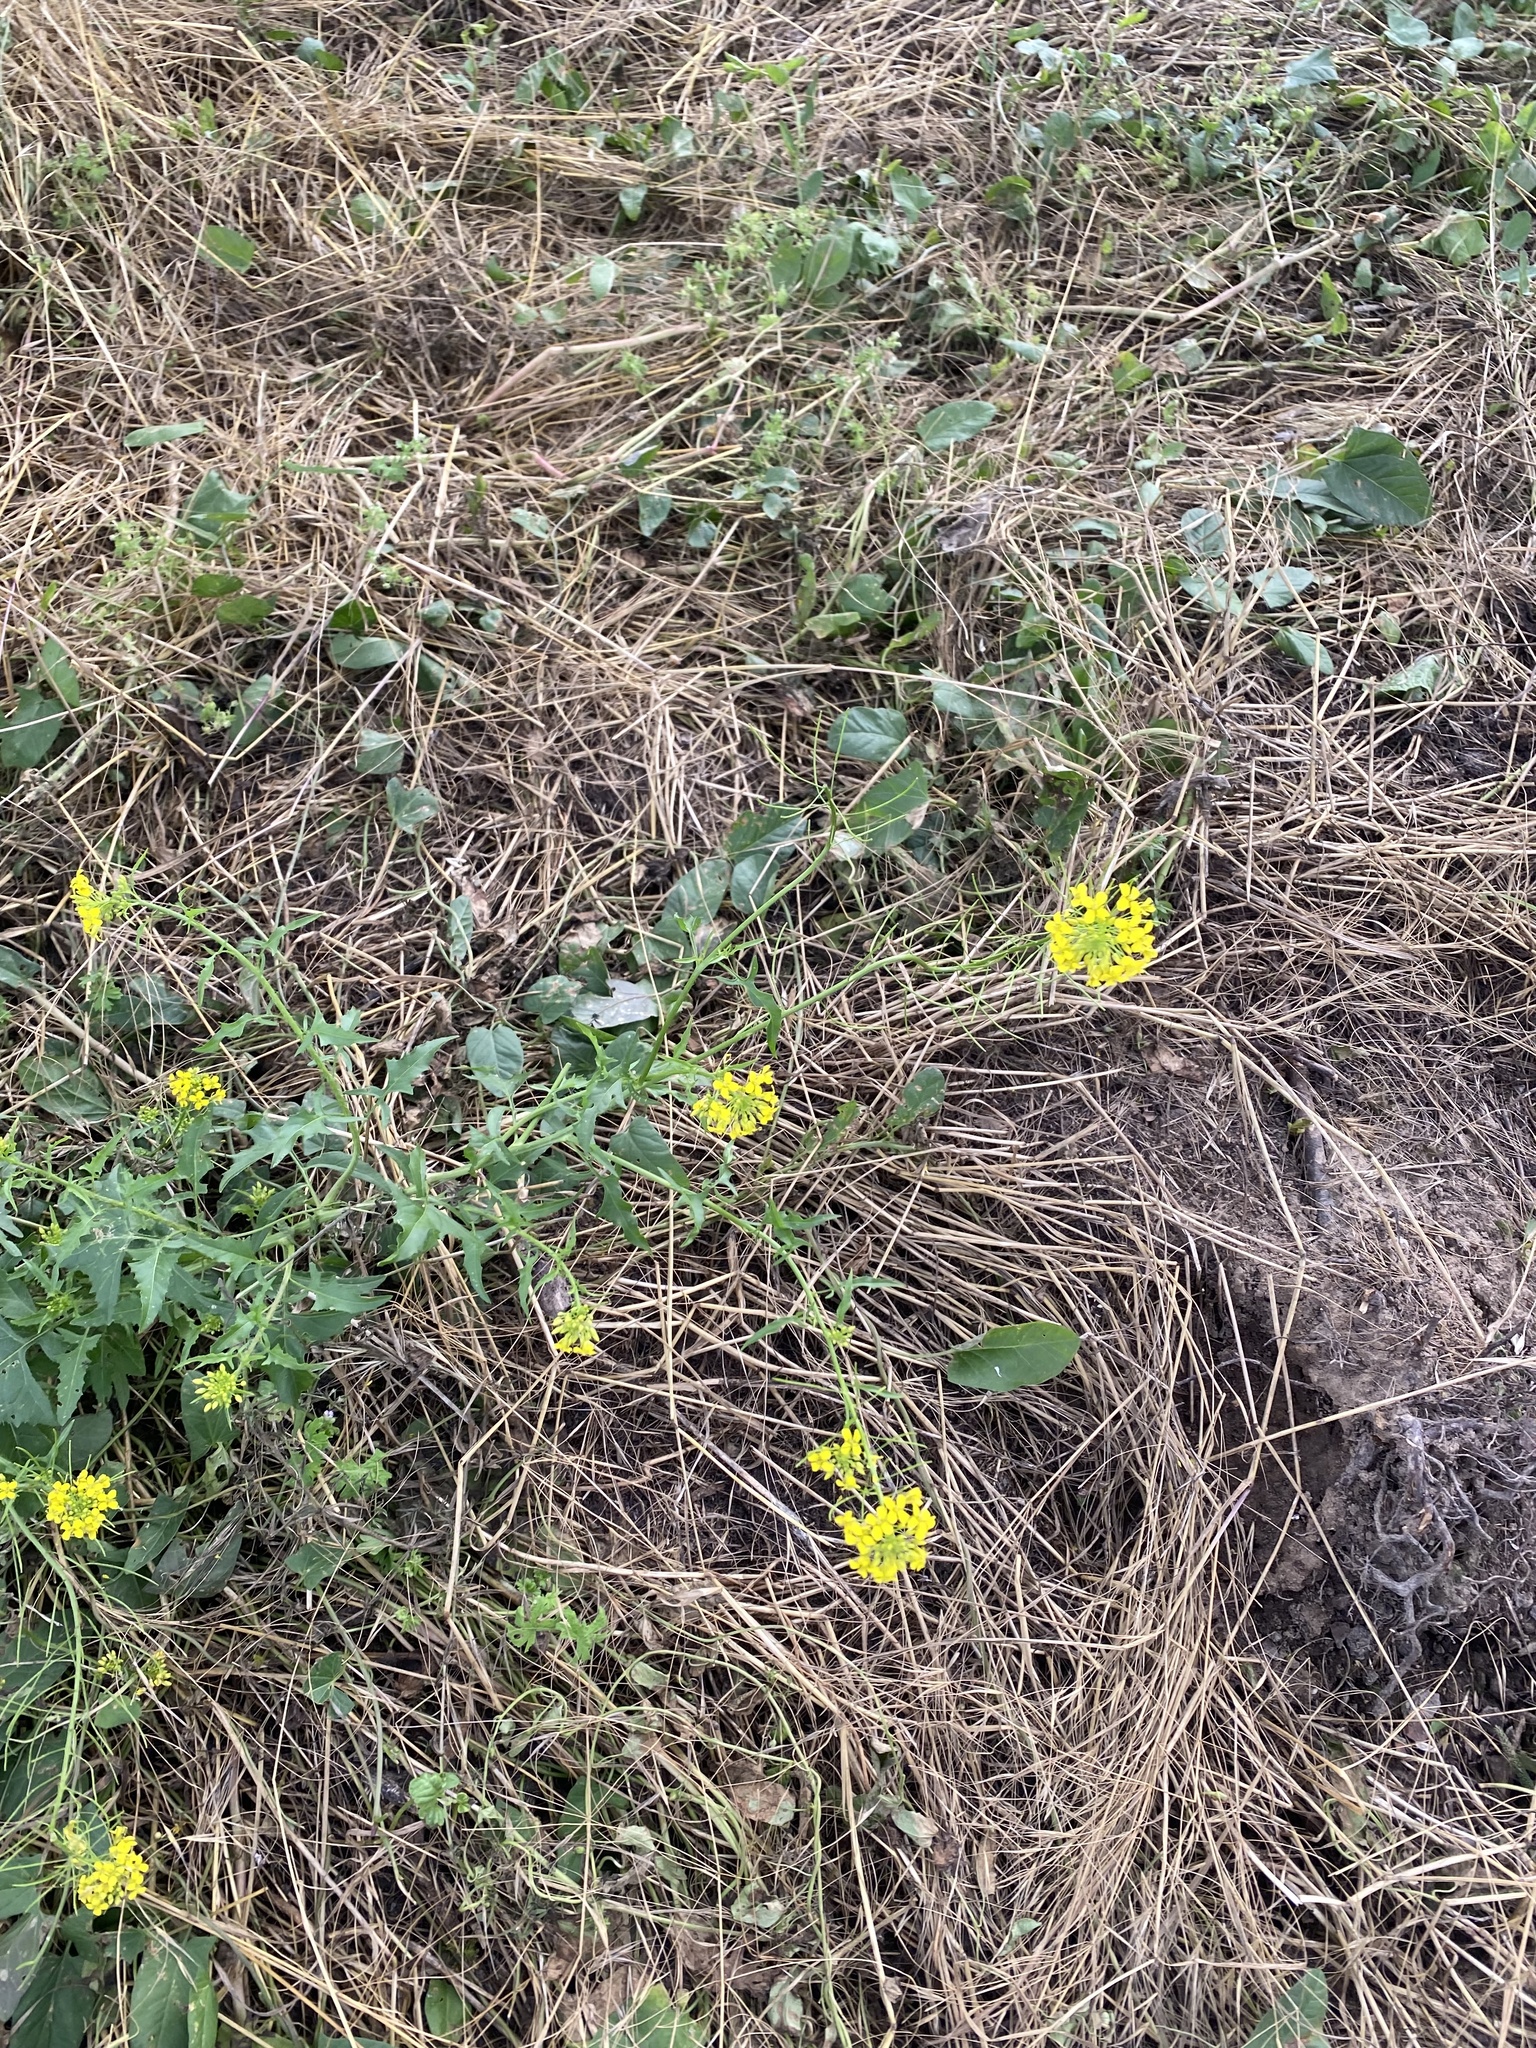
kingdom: Plantae
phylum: Tracheophyta
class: Magnoliopsida
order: Brassicales
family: Brassicaceae
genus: Sisymbrium
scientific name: Sisymbrium loeselii
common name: False london-rocket
